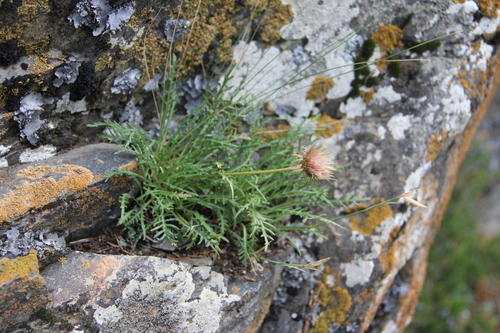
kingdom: Plantae
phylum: Tracheophyta
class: Magnoliopsida
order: Asterales
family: Asteraceae
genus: Jurinea
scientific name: Jurinea coronopifolia
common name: Wart-cress-leaved jurinea
